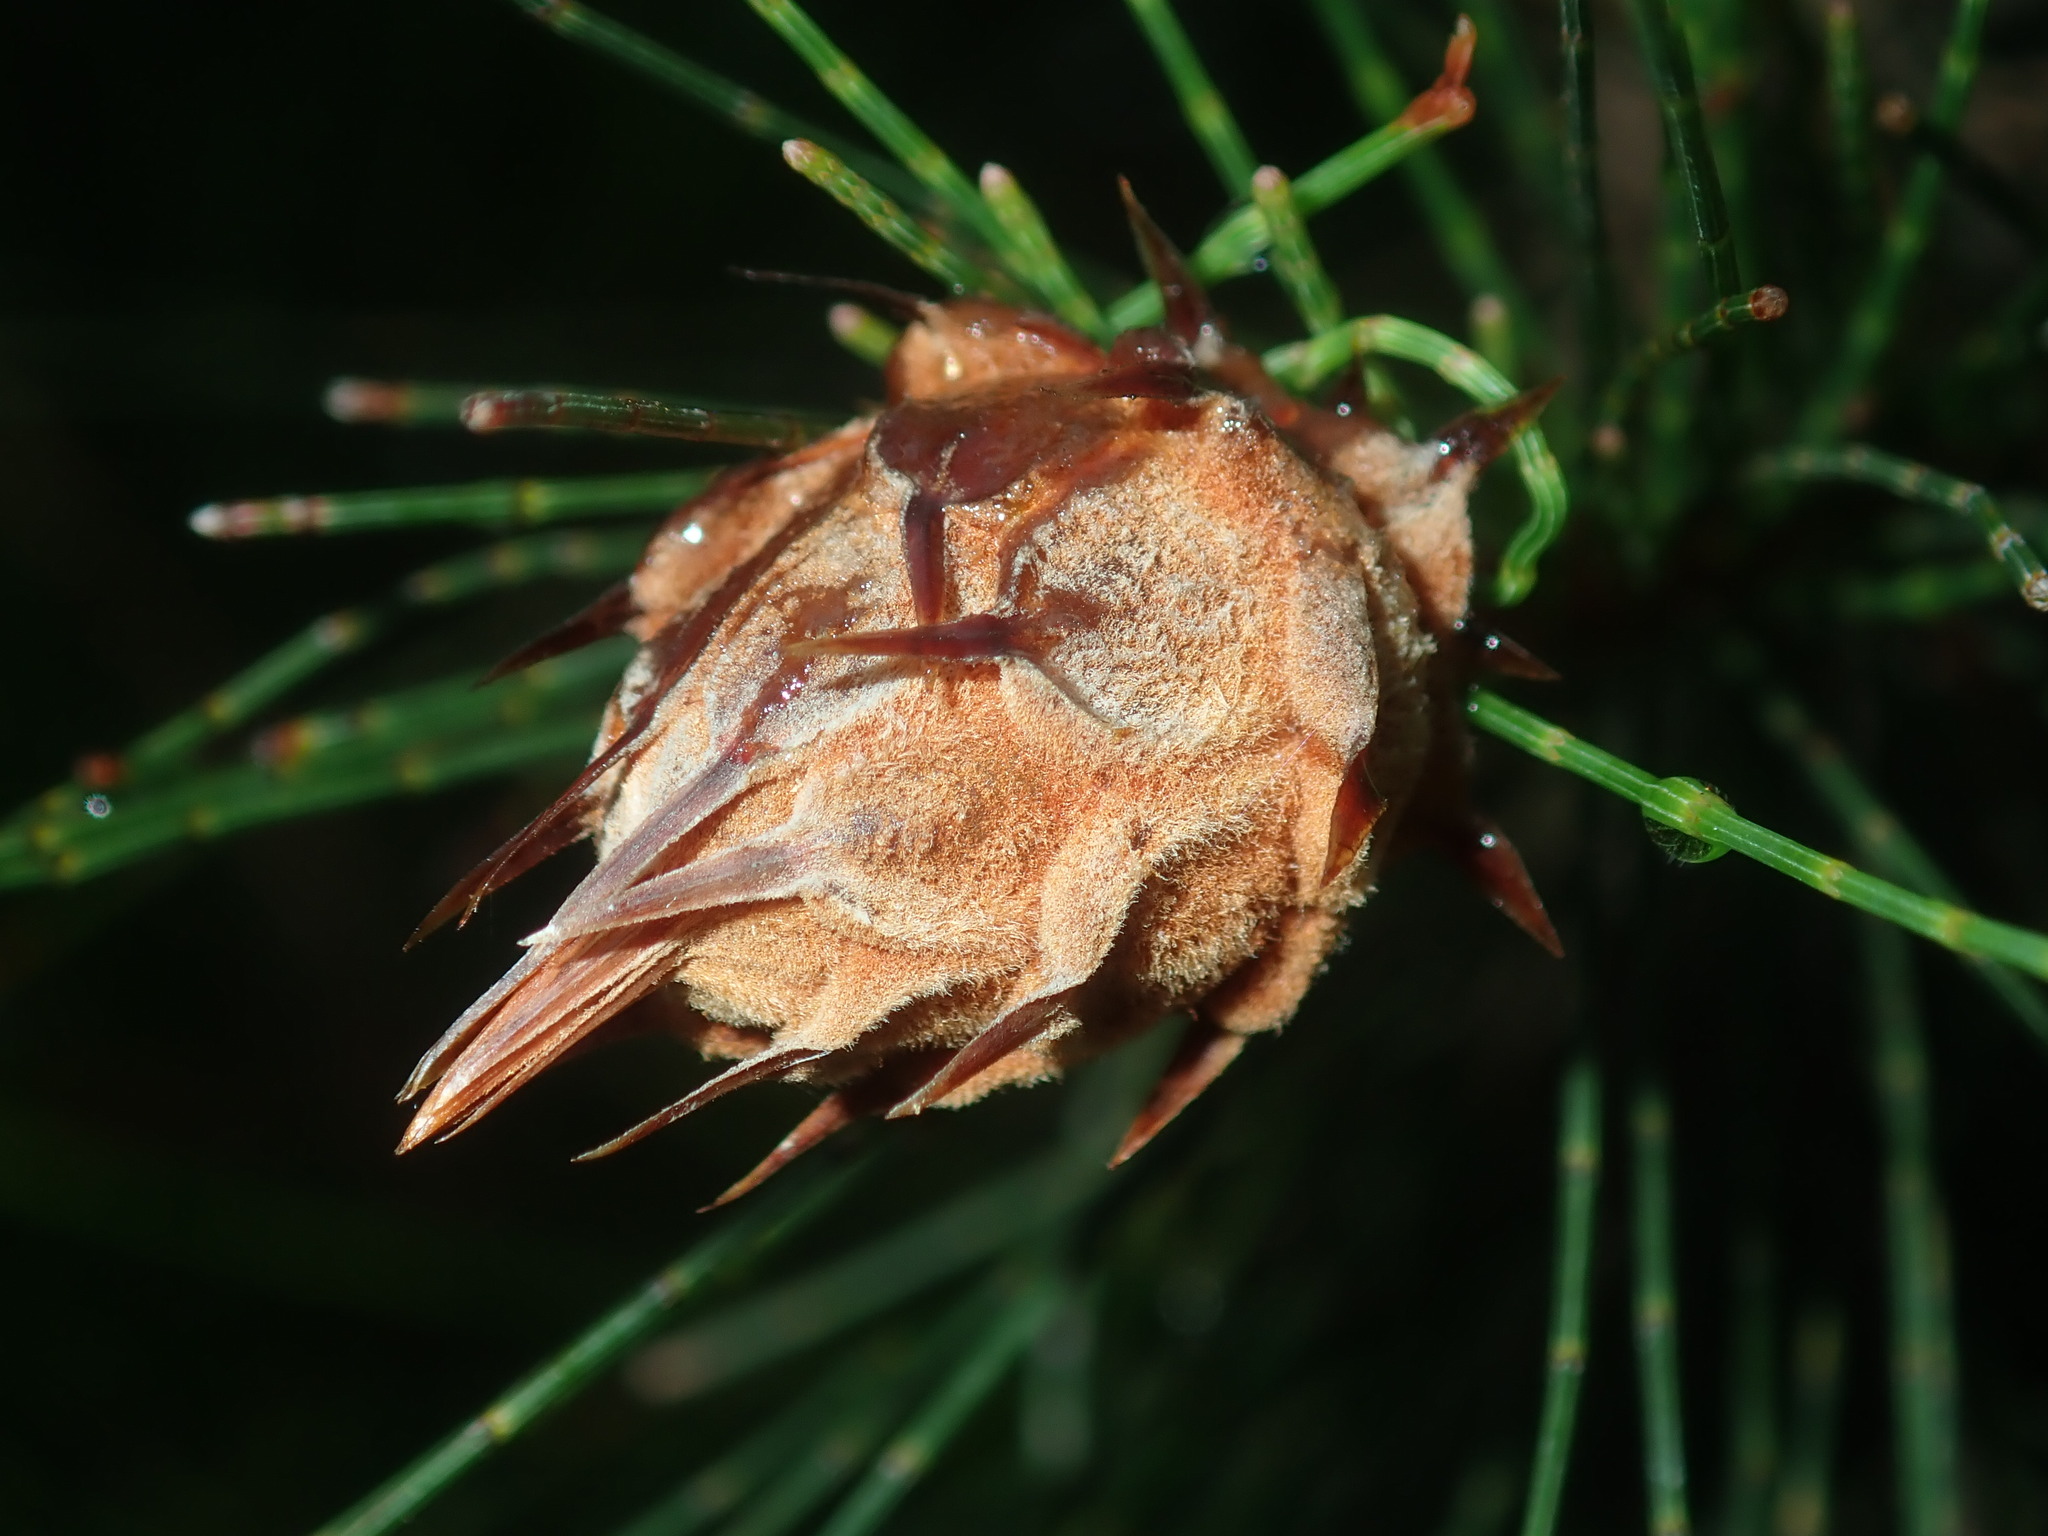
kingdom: Animalia
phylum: Arthropoda
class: Insecta
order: Hemiptera
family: Eriococcidae
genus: Cylindrococcus
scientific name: Cylindrococcus spiniferus
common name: Casuarina gall
